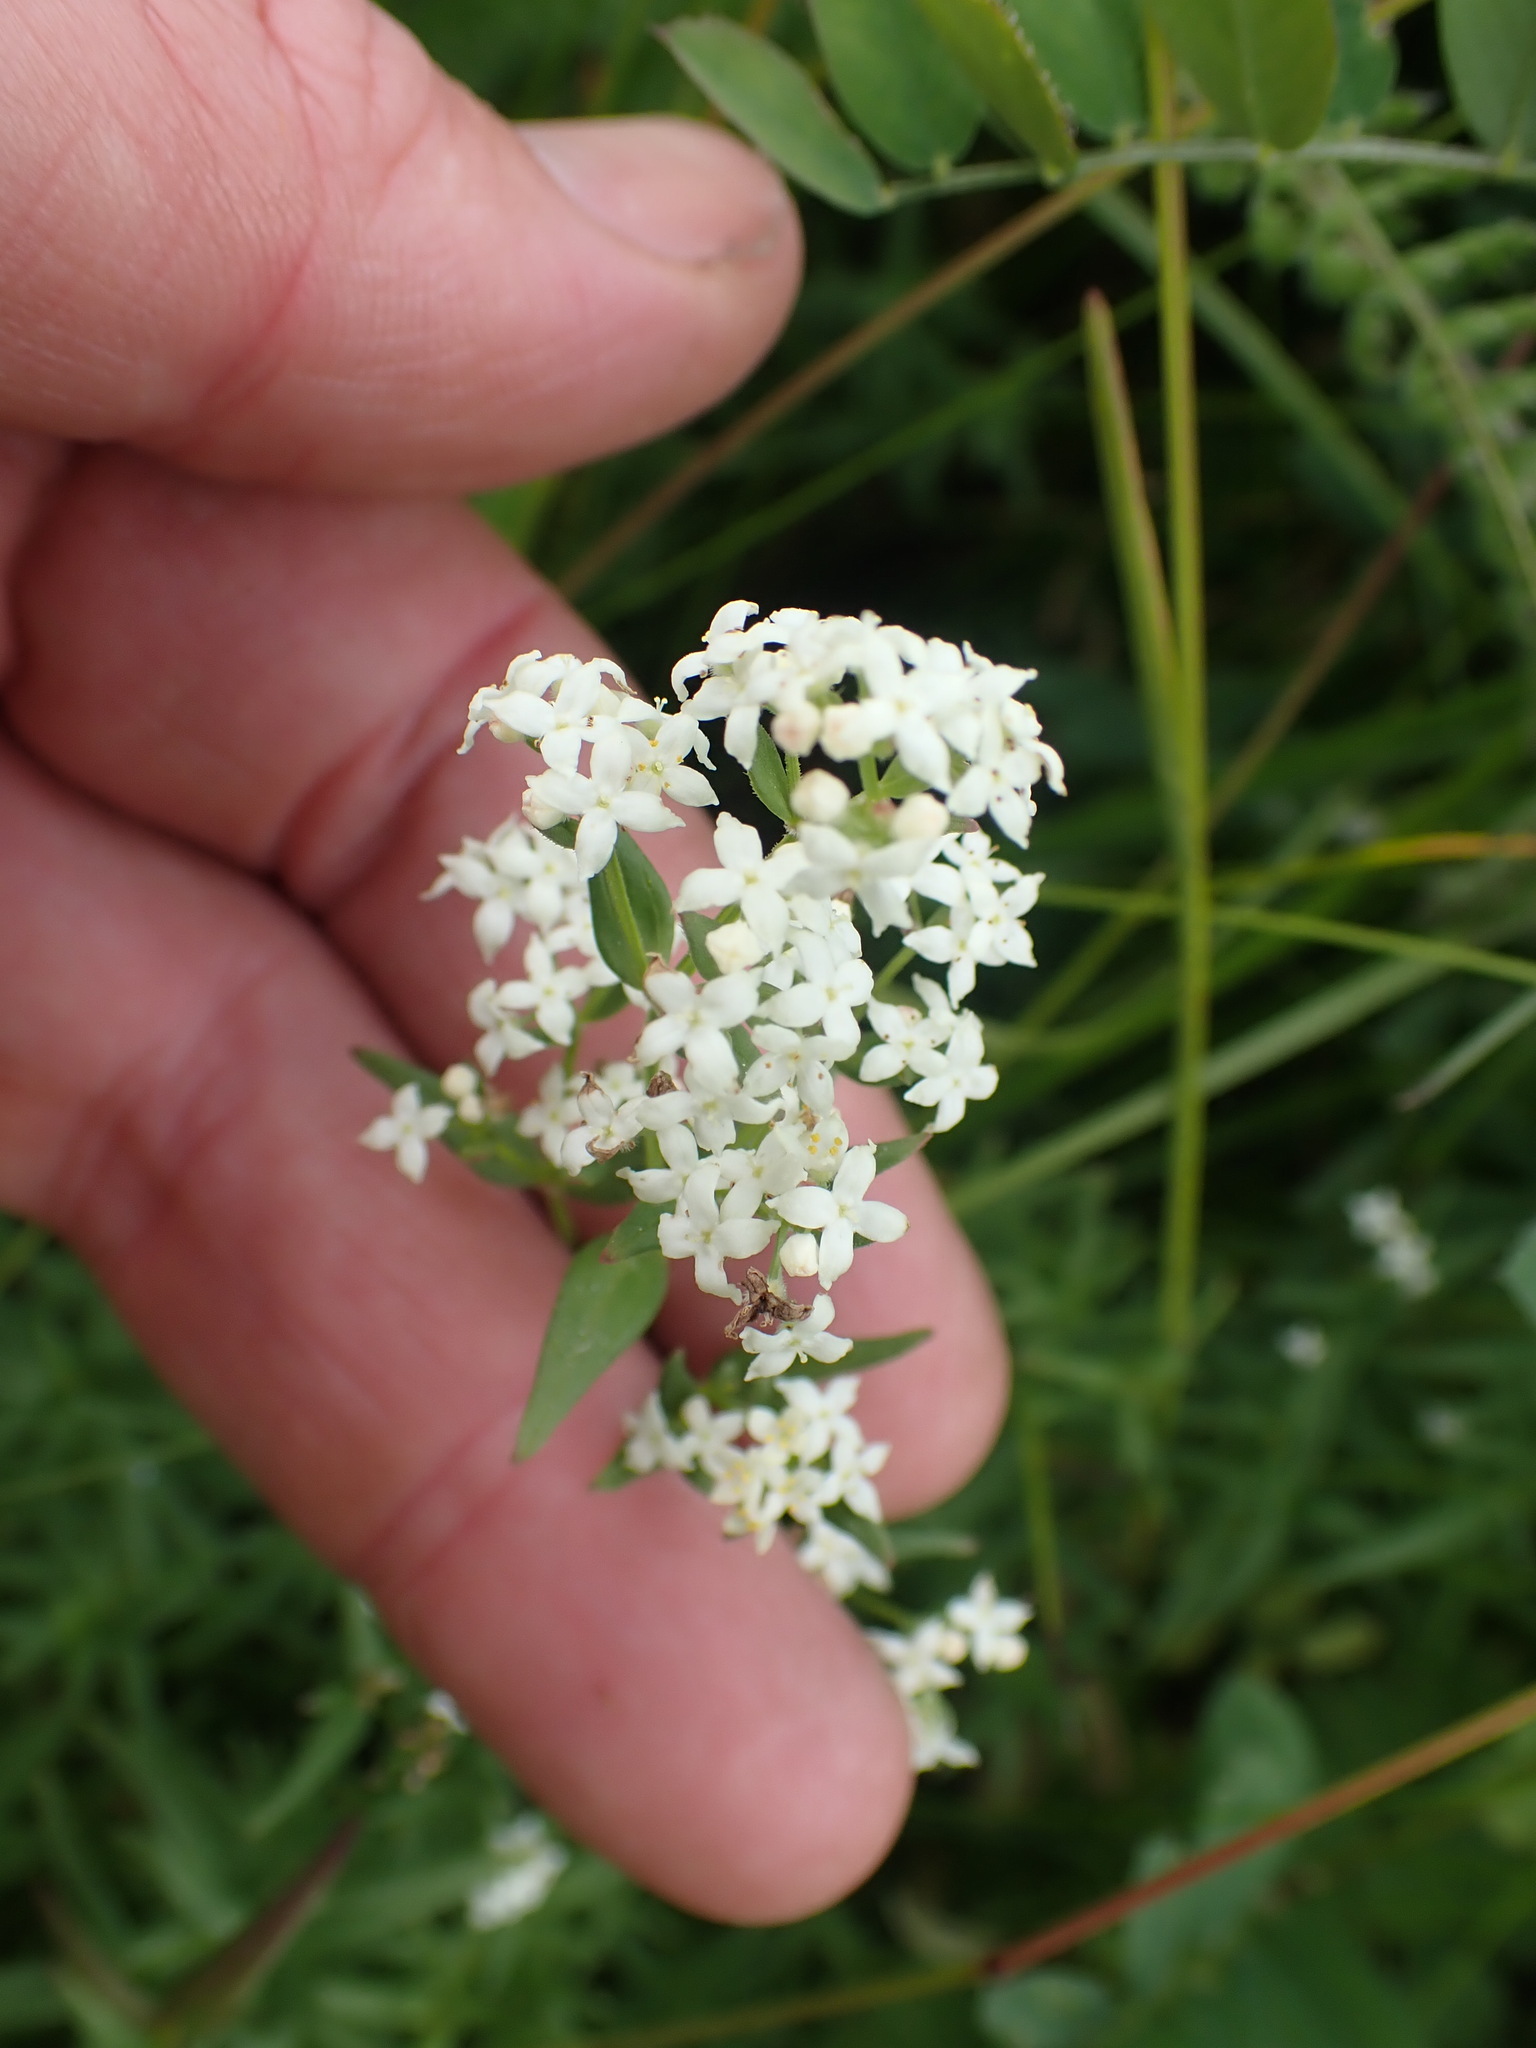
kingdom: Plantae
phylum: Tracheophyta
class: Magnoliopsida
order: Gentianales
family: Rubiaceae
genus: Galium
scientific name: Galium boreale
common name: Northern bedstraw
